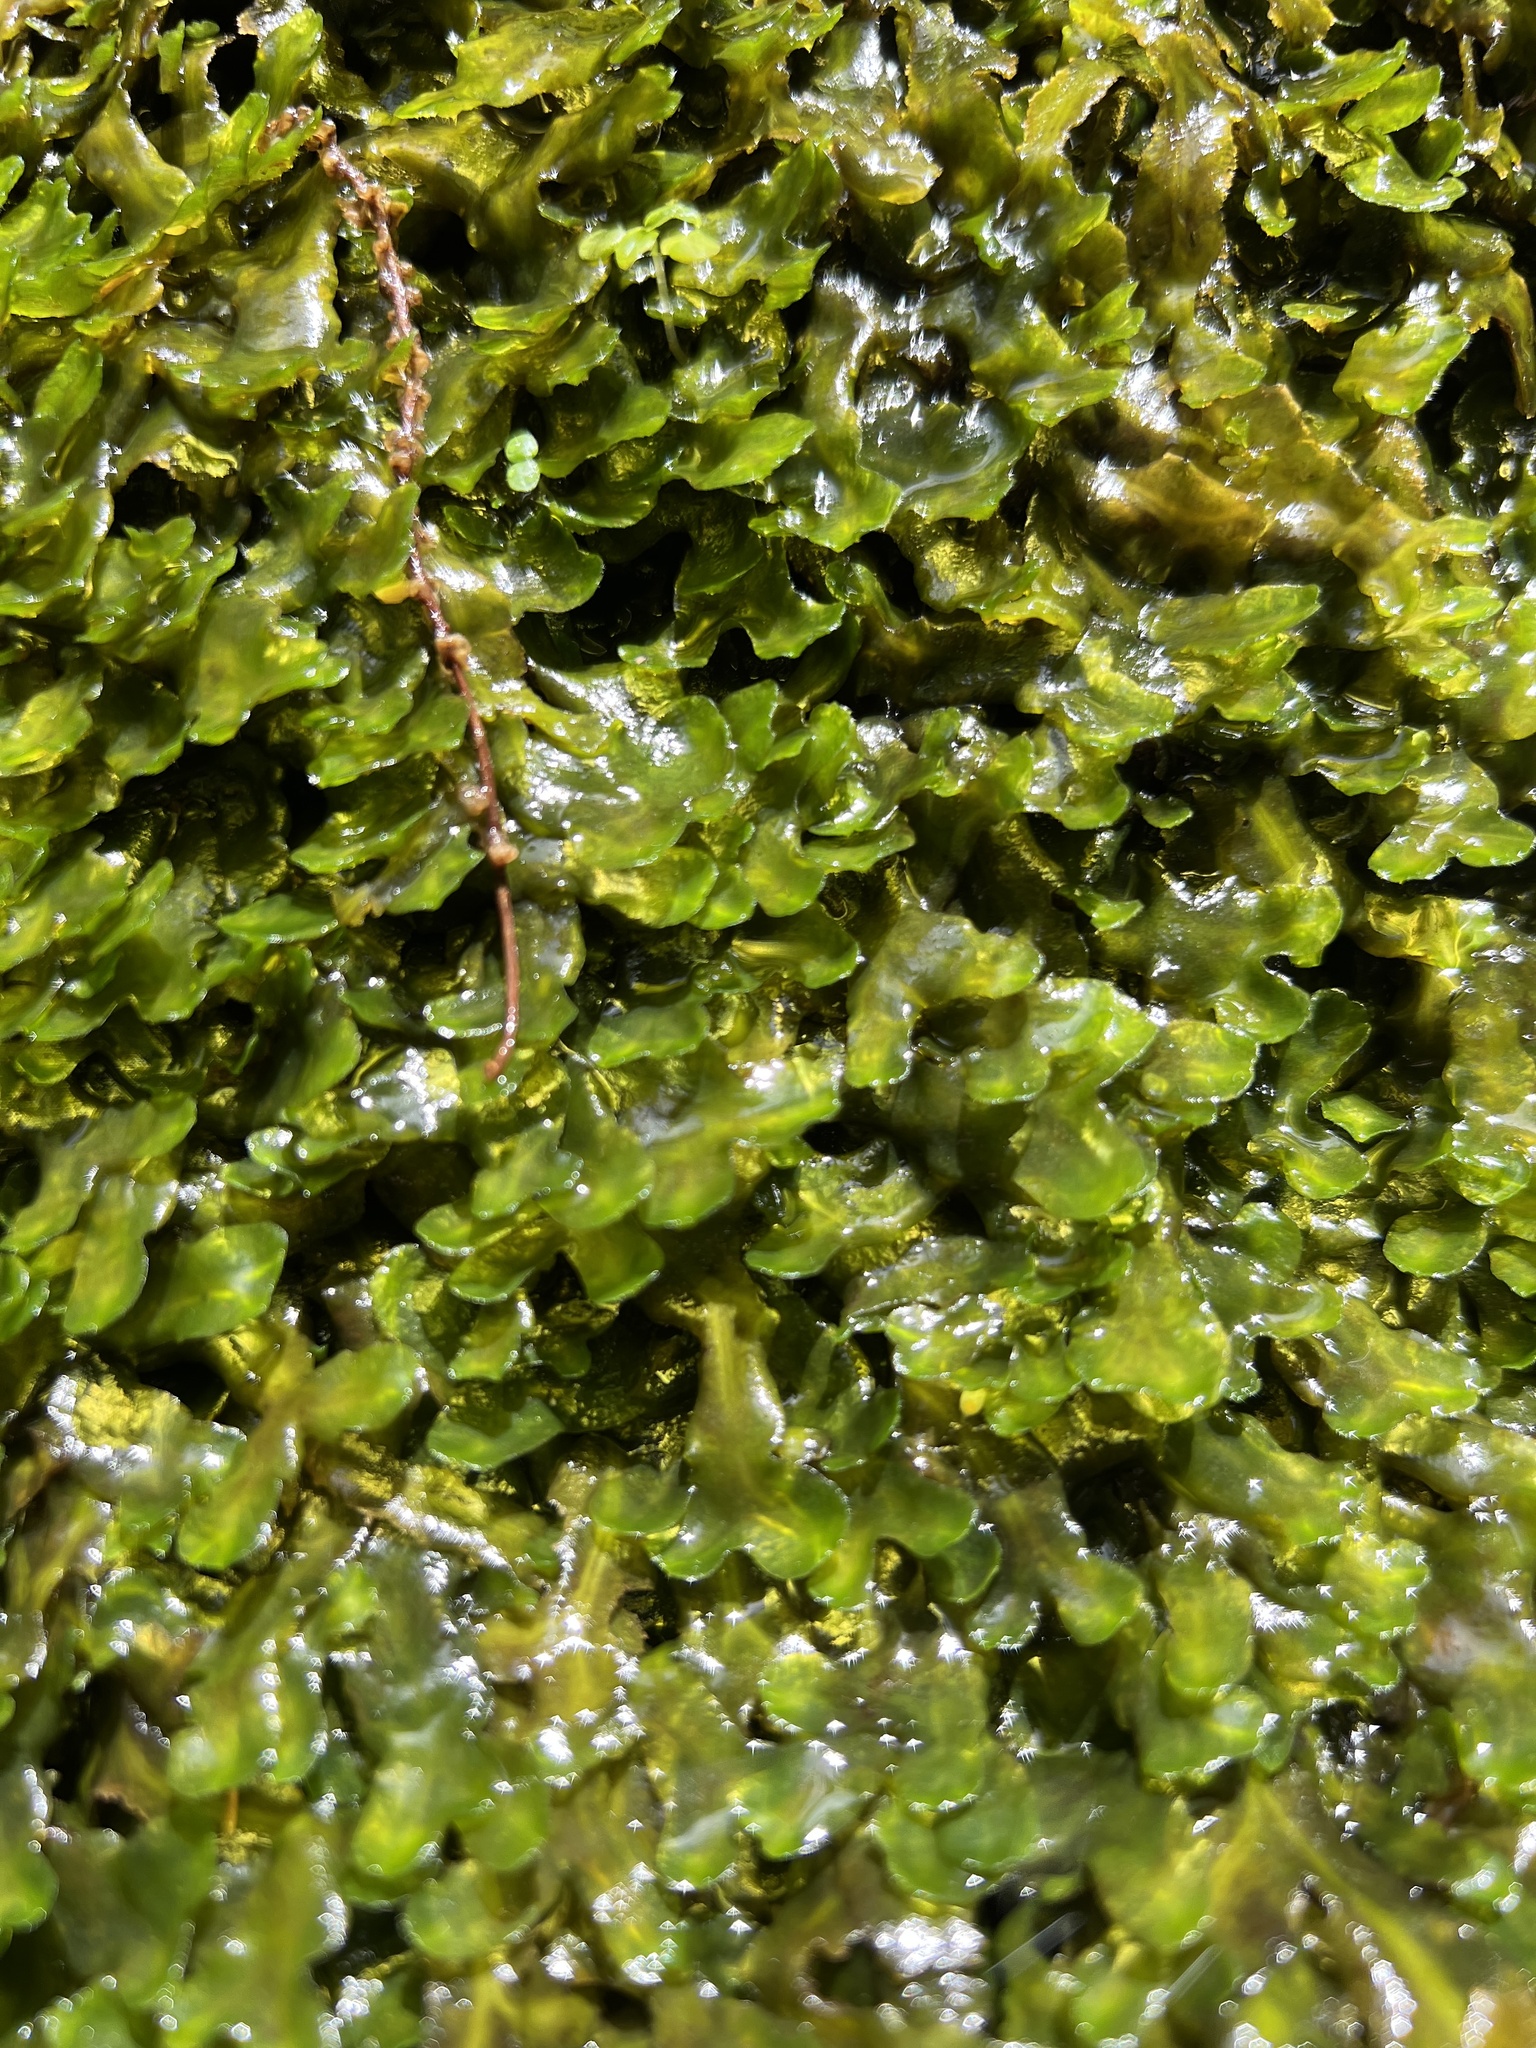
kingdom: Plantae
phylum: Marchantiophyta
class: Marchantiopsida
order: Marchantiales
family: Dumortieraceae
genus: Dumortiera
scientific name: Dumortiera hirsuta
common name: Dumortier's liverwort
